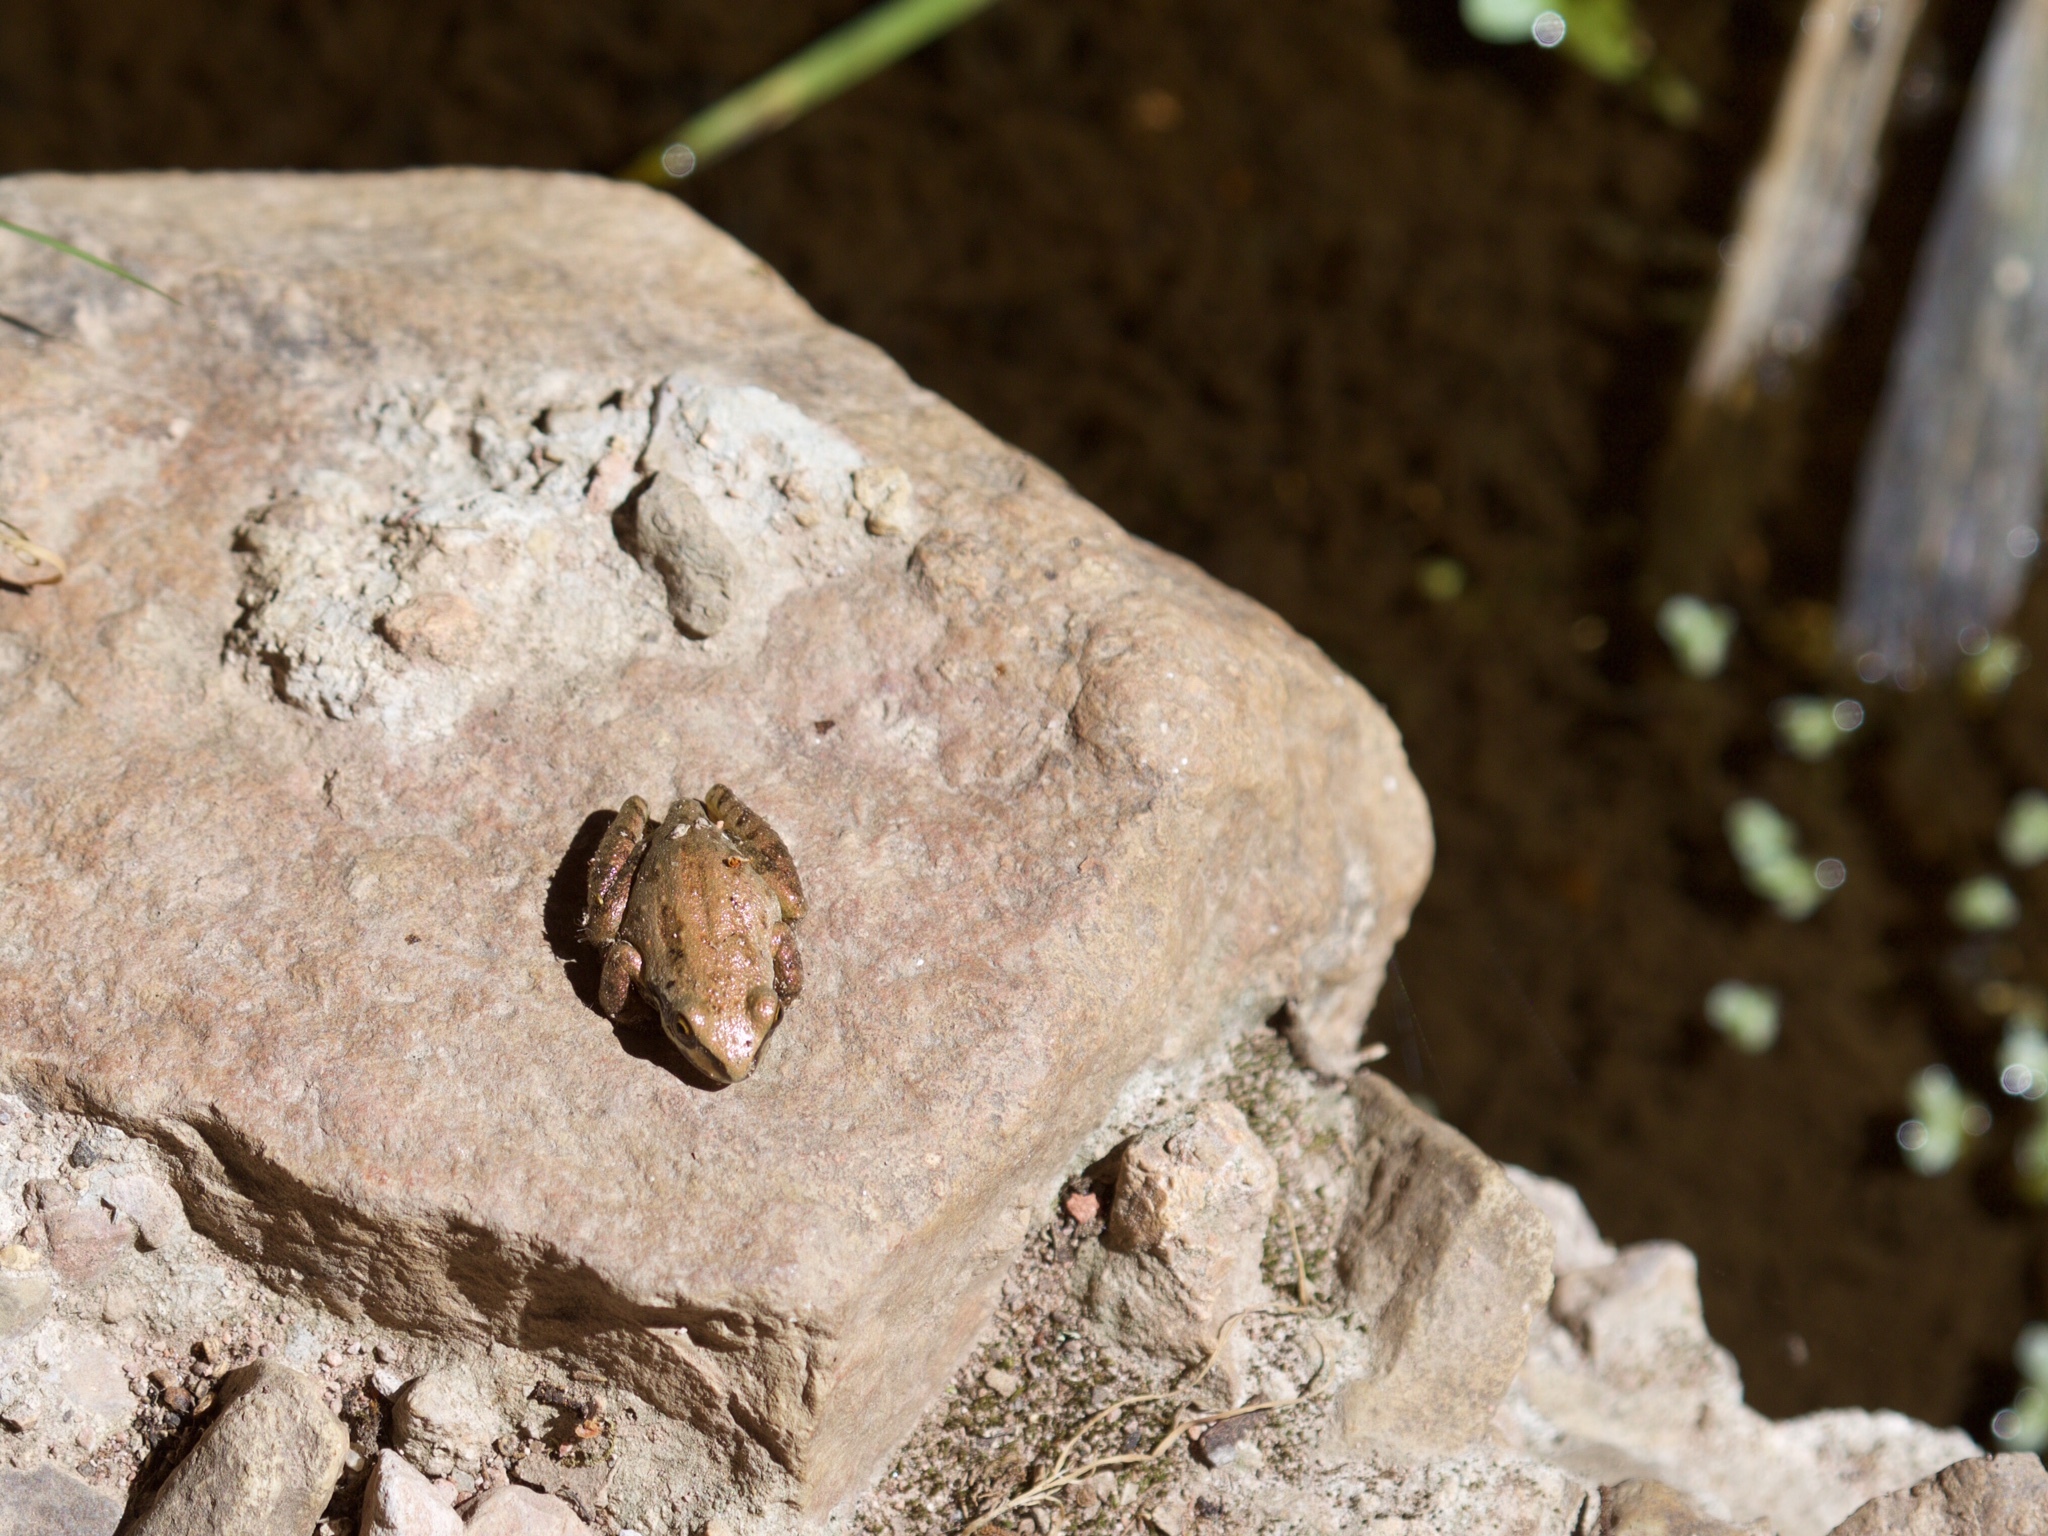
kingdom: Animalia
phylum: Chordata
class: Amphibia
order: Anura
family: Hylidae
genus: Pseudacris
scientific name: Pseudacris regilla
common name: Pacific chorus frog
